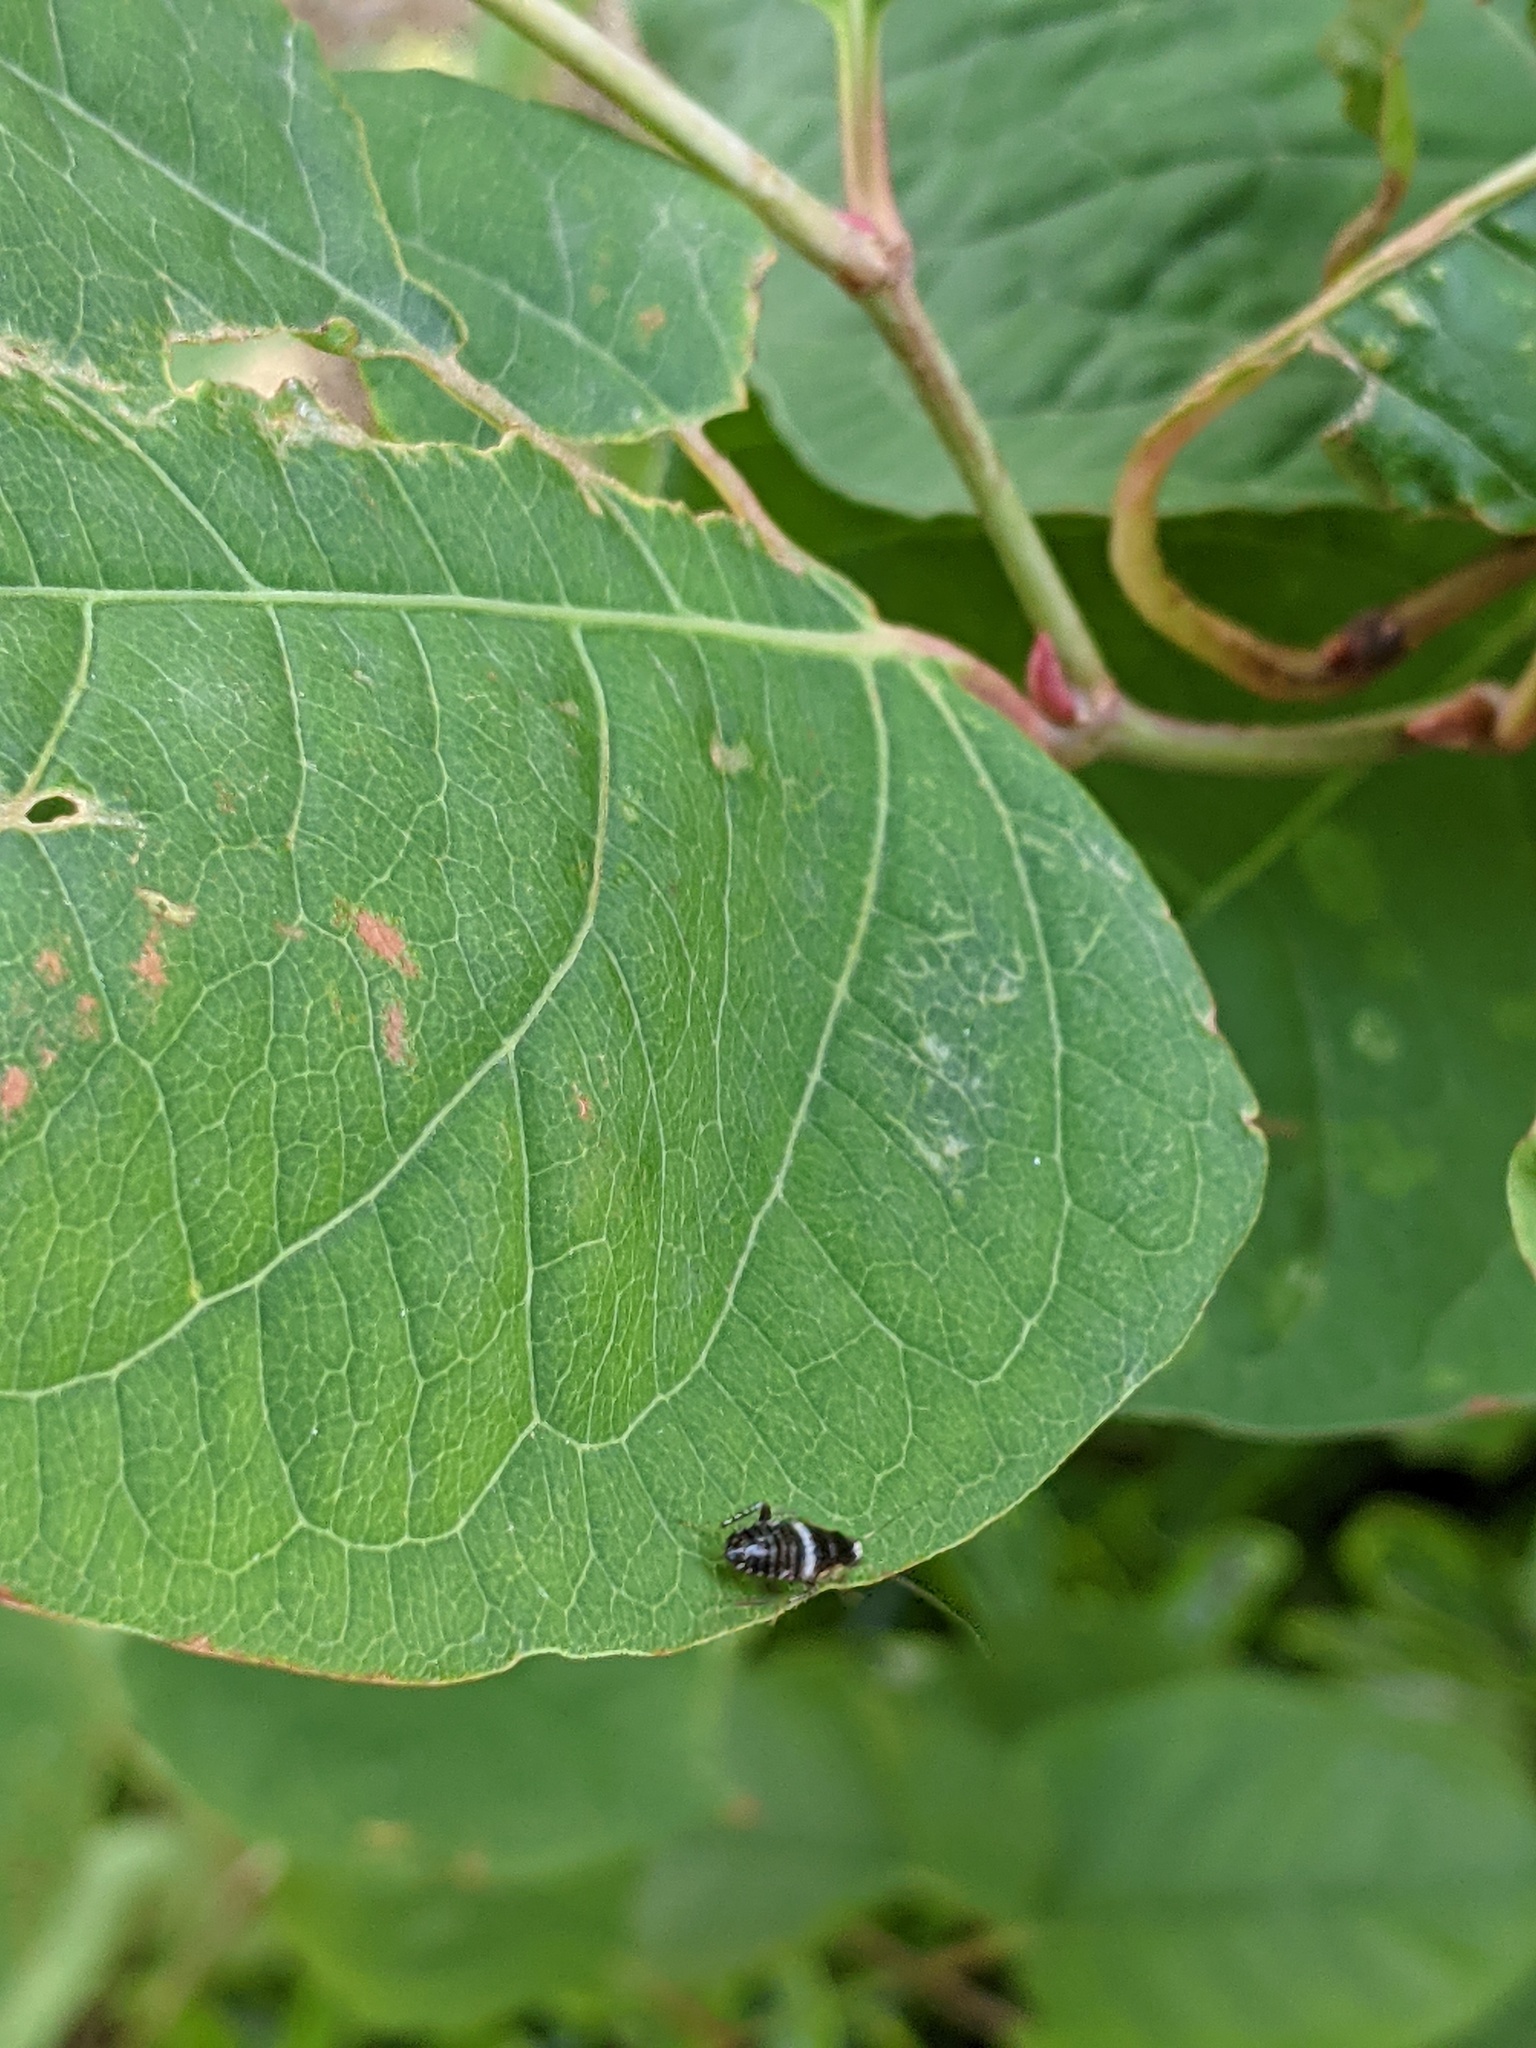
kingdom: Animalia
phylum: Arthropoda
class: Insecta
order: Blattodea
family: Ectobiidae
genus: Planuncus
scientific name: Planuncus vinzi
